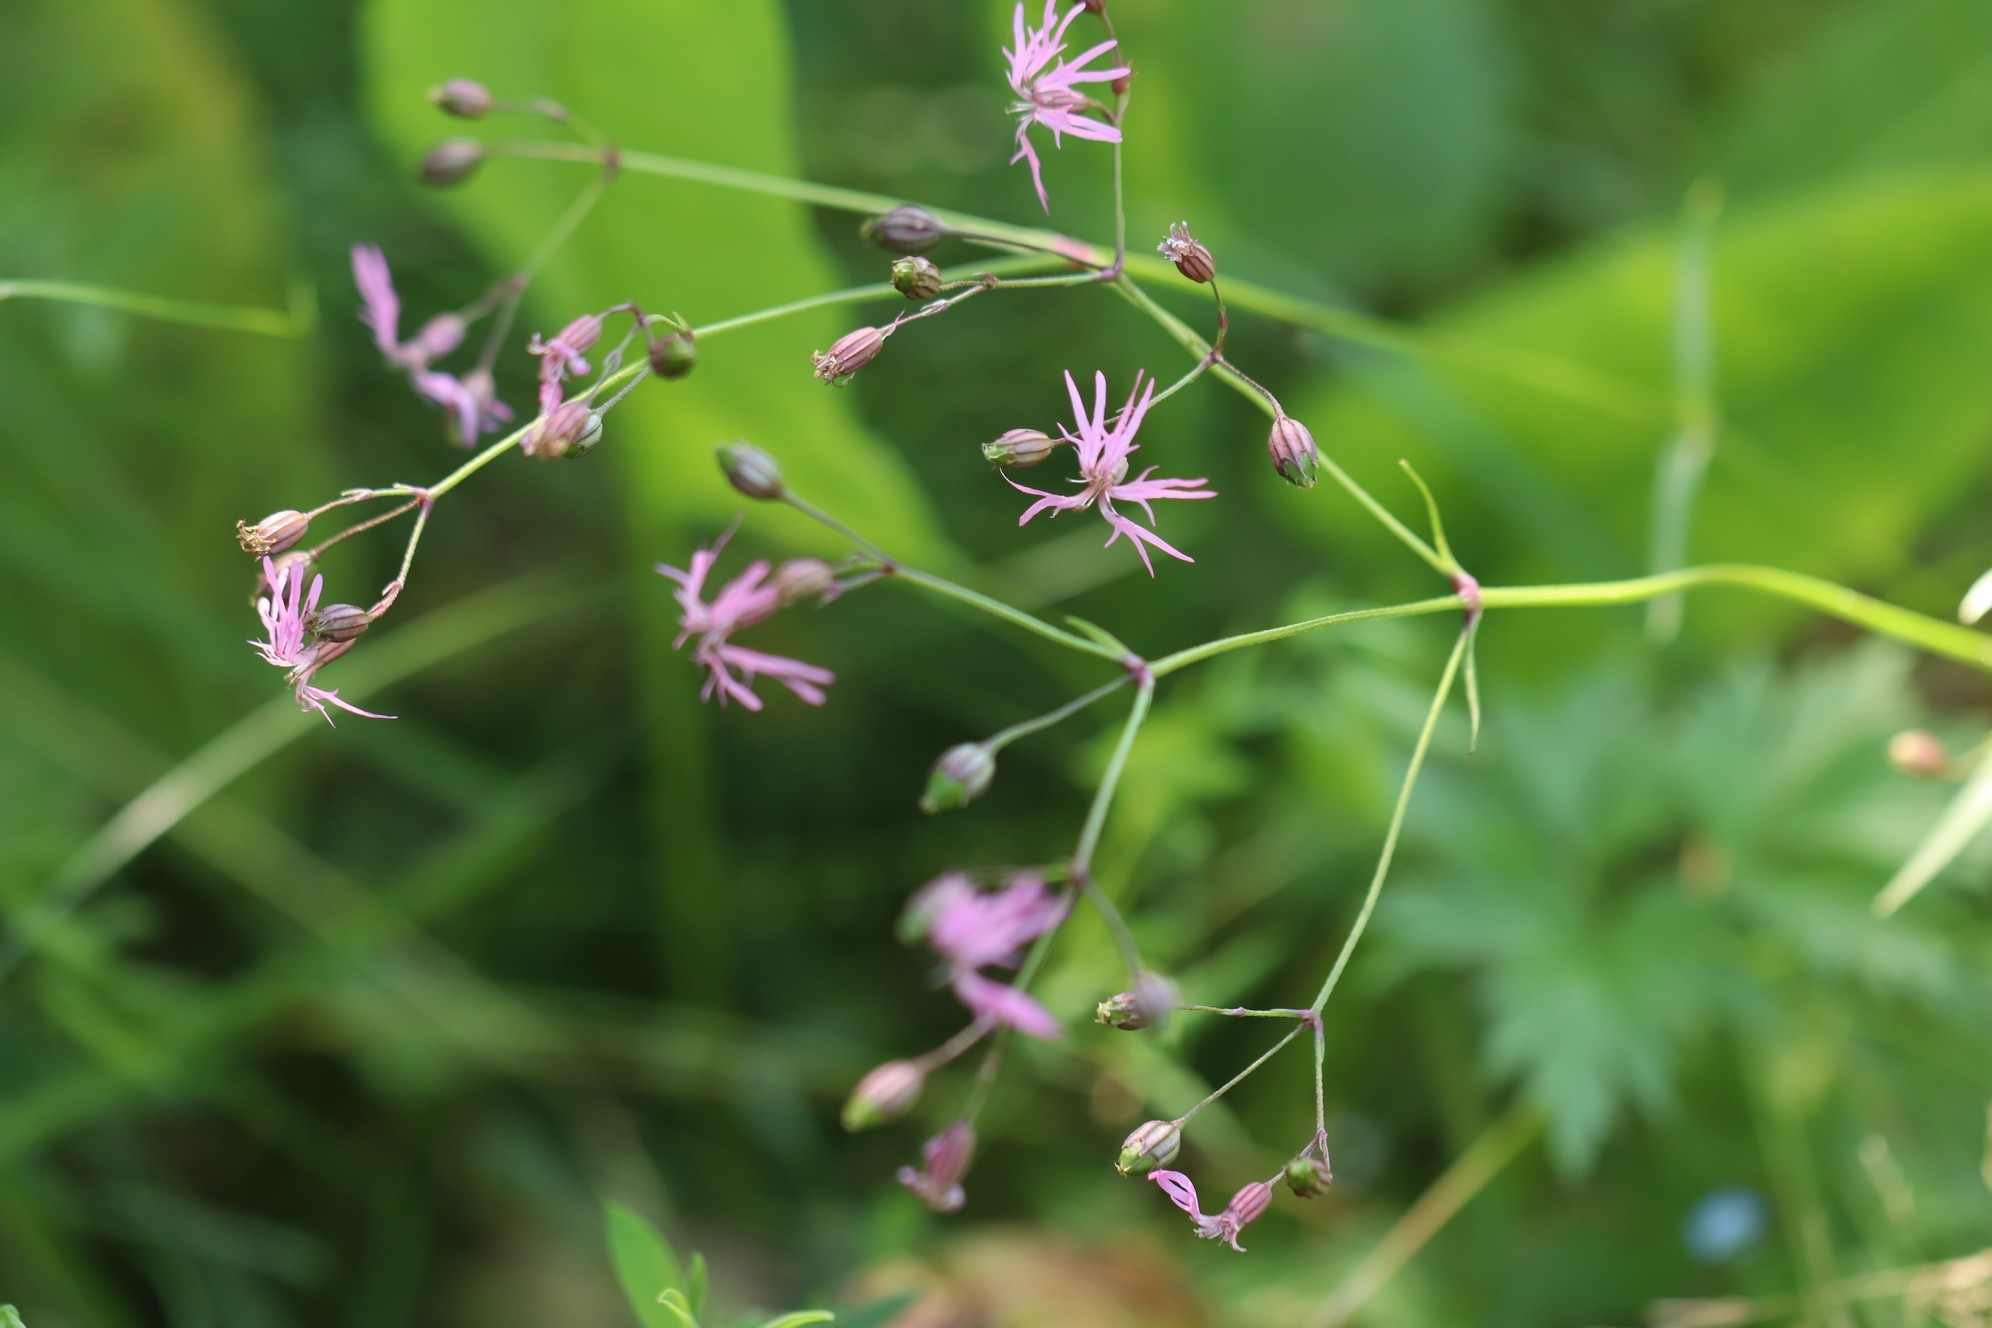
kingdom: Plantae
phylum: Tracheophyta
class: Magnoliopsida
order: Caryophyllales
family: Caryophyllaceae
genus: Silene
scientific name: Silene flos-cuculi
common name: Ragged-robin
